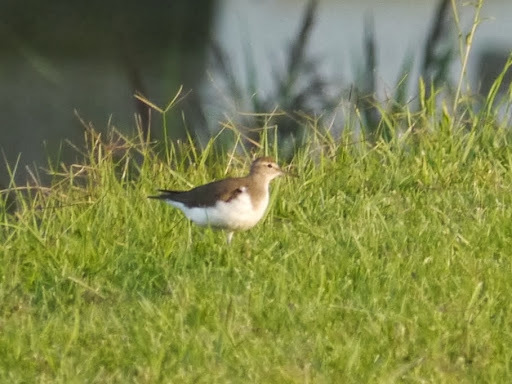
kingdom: Animalia
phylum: Chordata
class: Aves
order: Charadriiformes
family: Scolopacidae
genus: Actitis
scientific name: Actitis hypoleucos
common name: Common sandpiper
